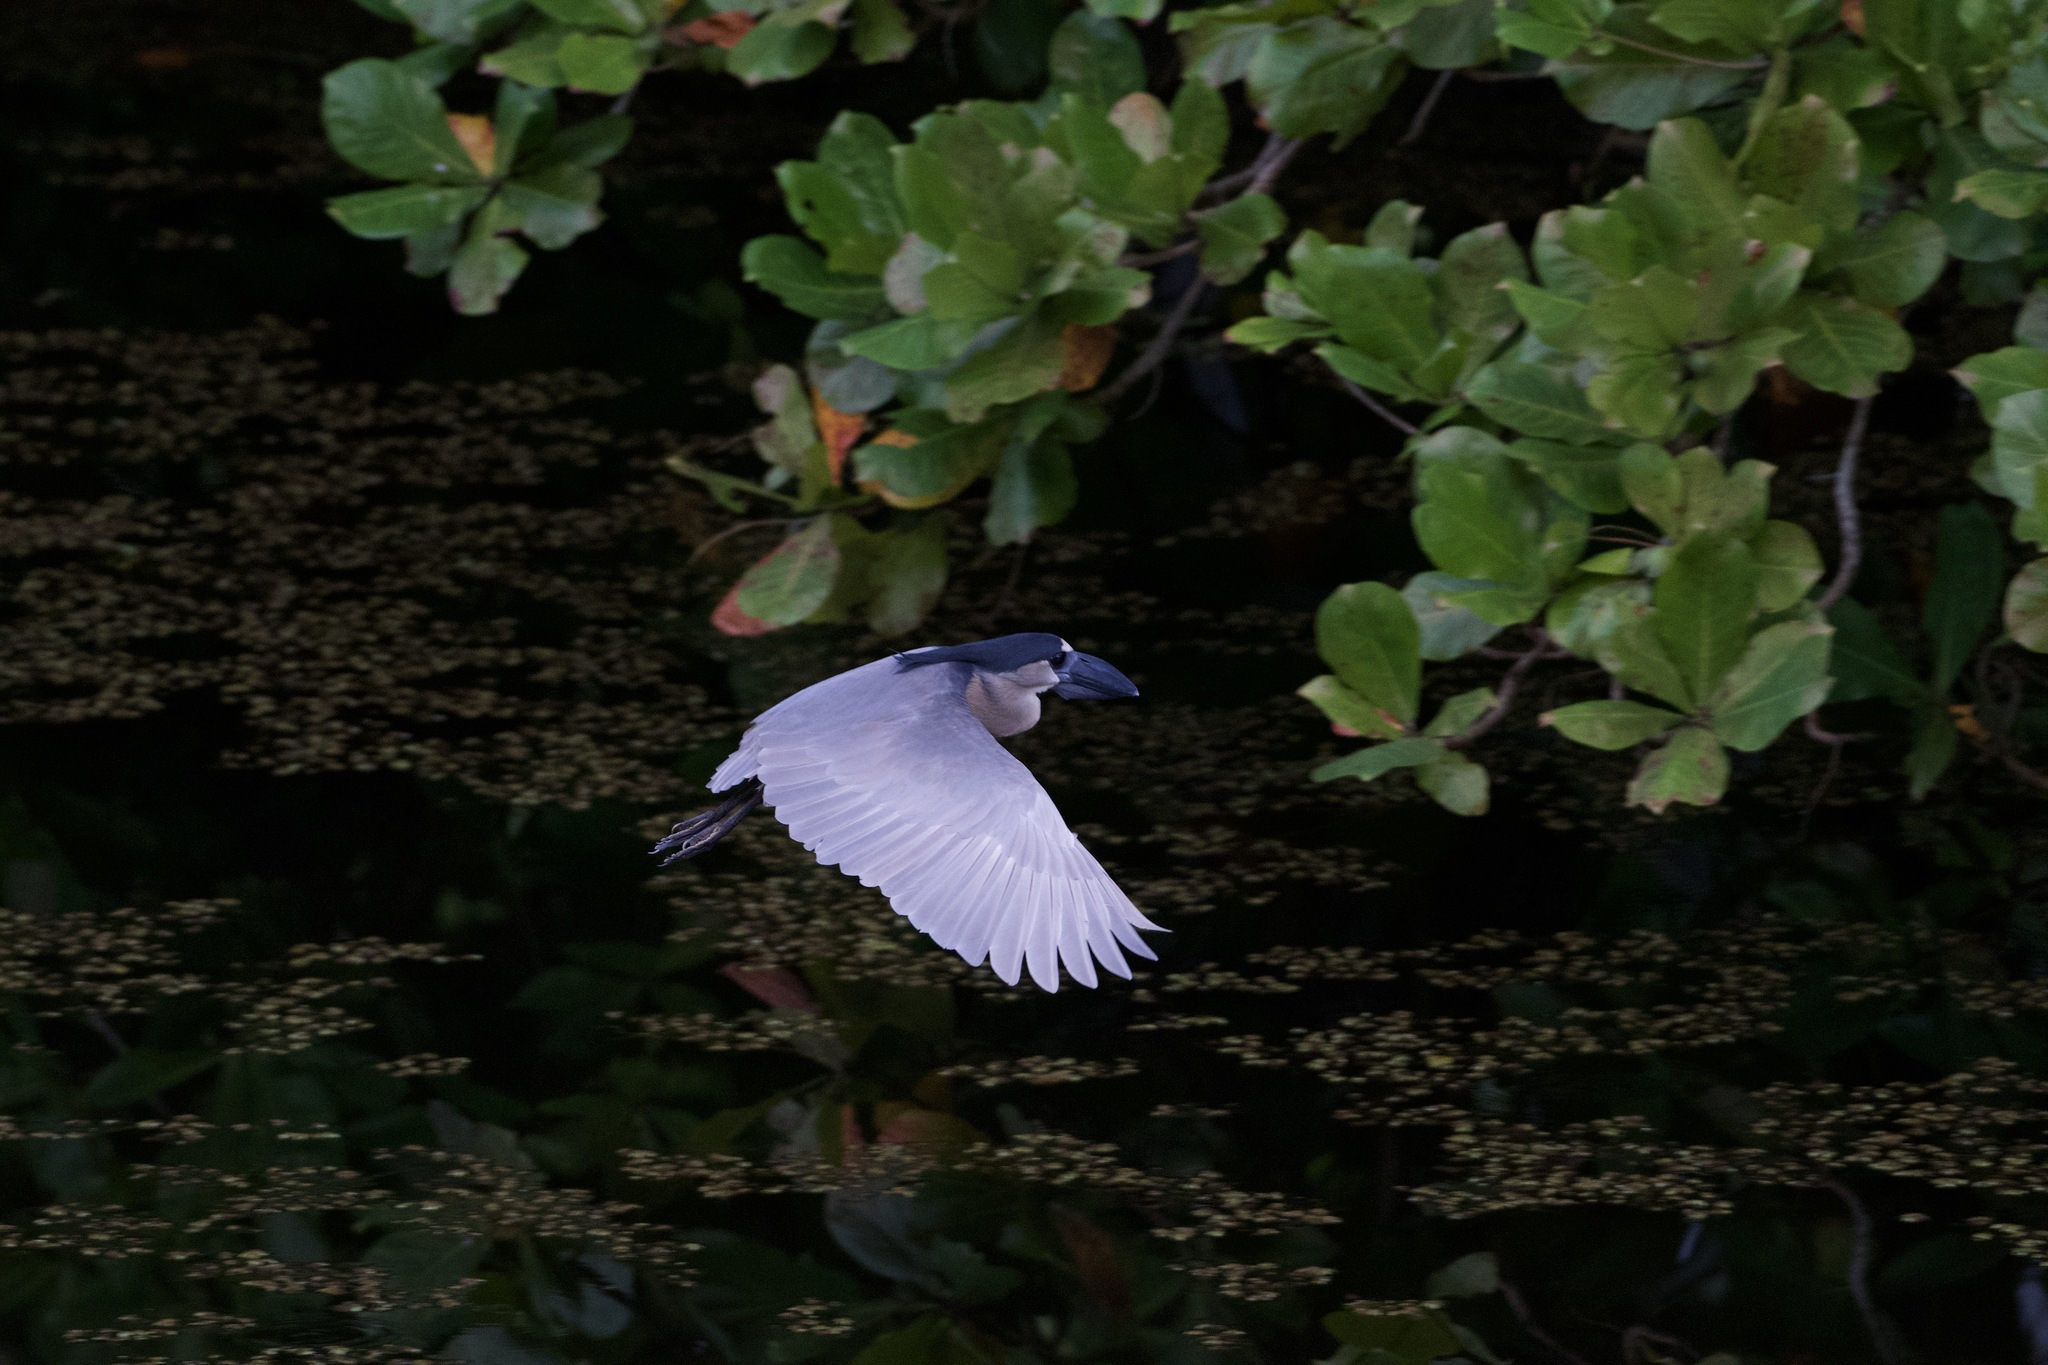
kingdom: Animalia
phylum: Chordata
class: Aves
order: Pelecaniformes
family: Ardeidae
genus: Cochlearius
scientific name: Cochlearius cochlearius
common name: Boat-billed heron
